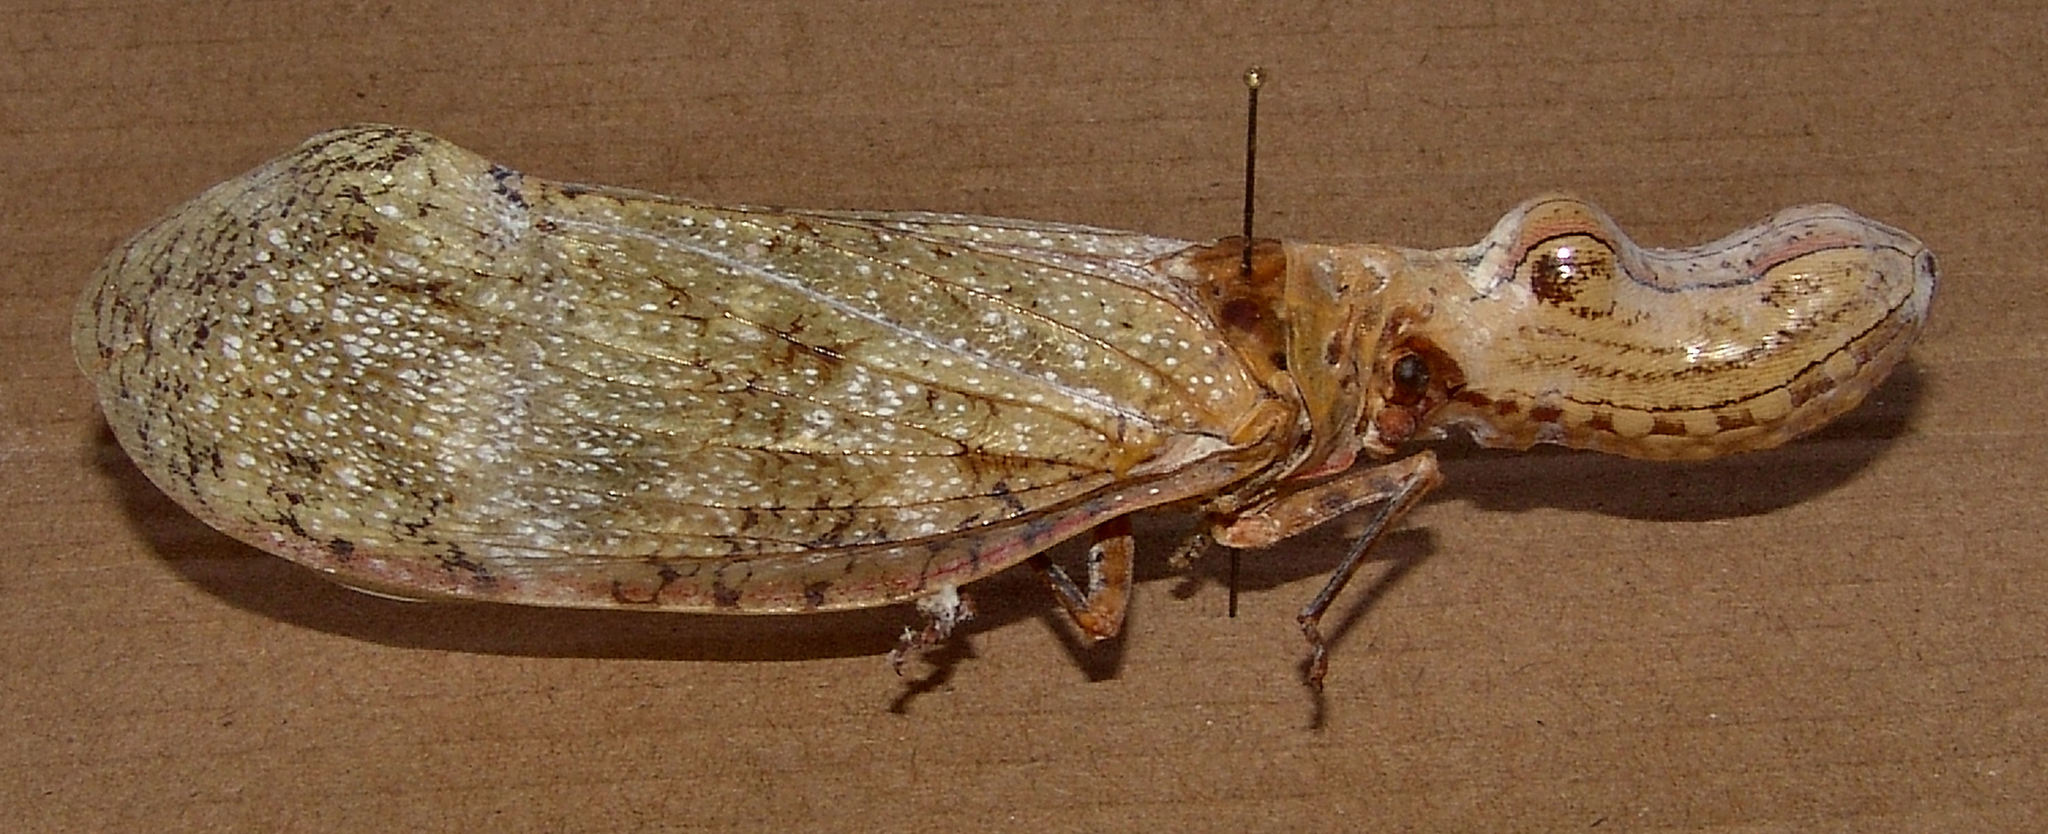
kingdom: Animalia
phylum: Arthropoda
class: Insecta
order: Hemiptera
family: Fulgoridae
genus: Fulgora
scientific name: Fulgora laternaria
